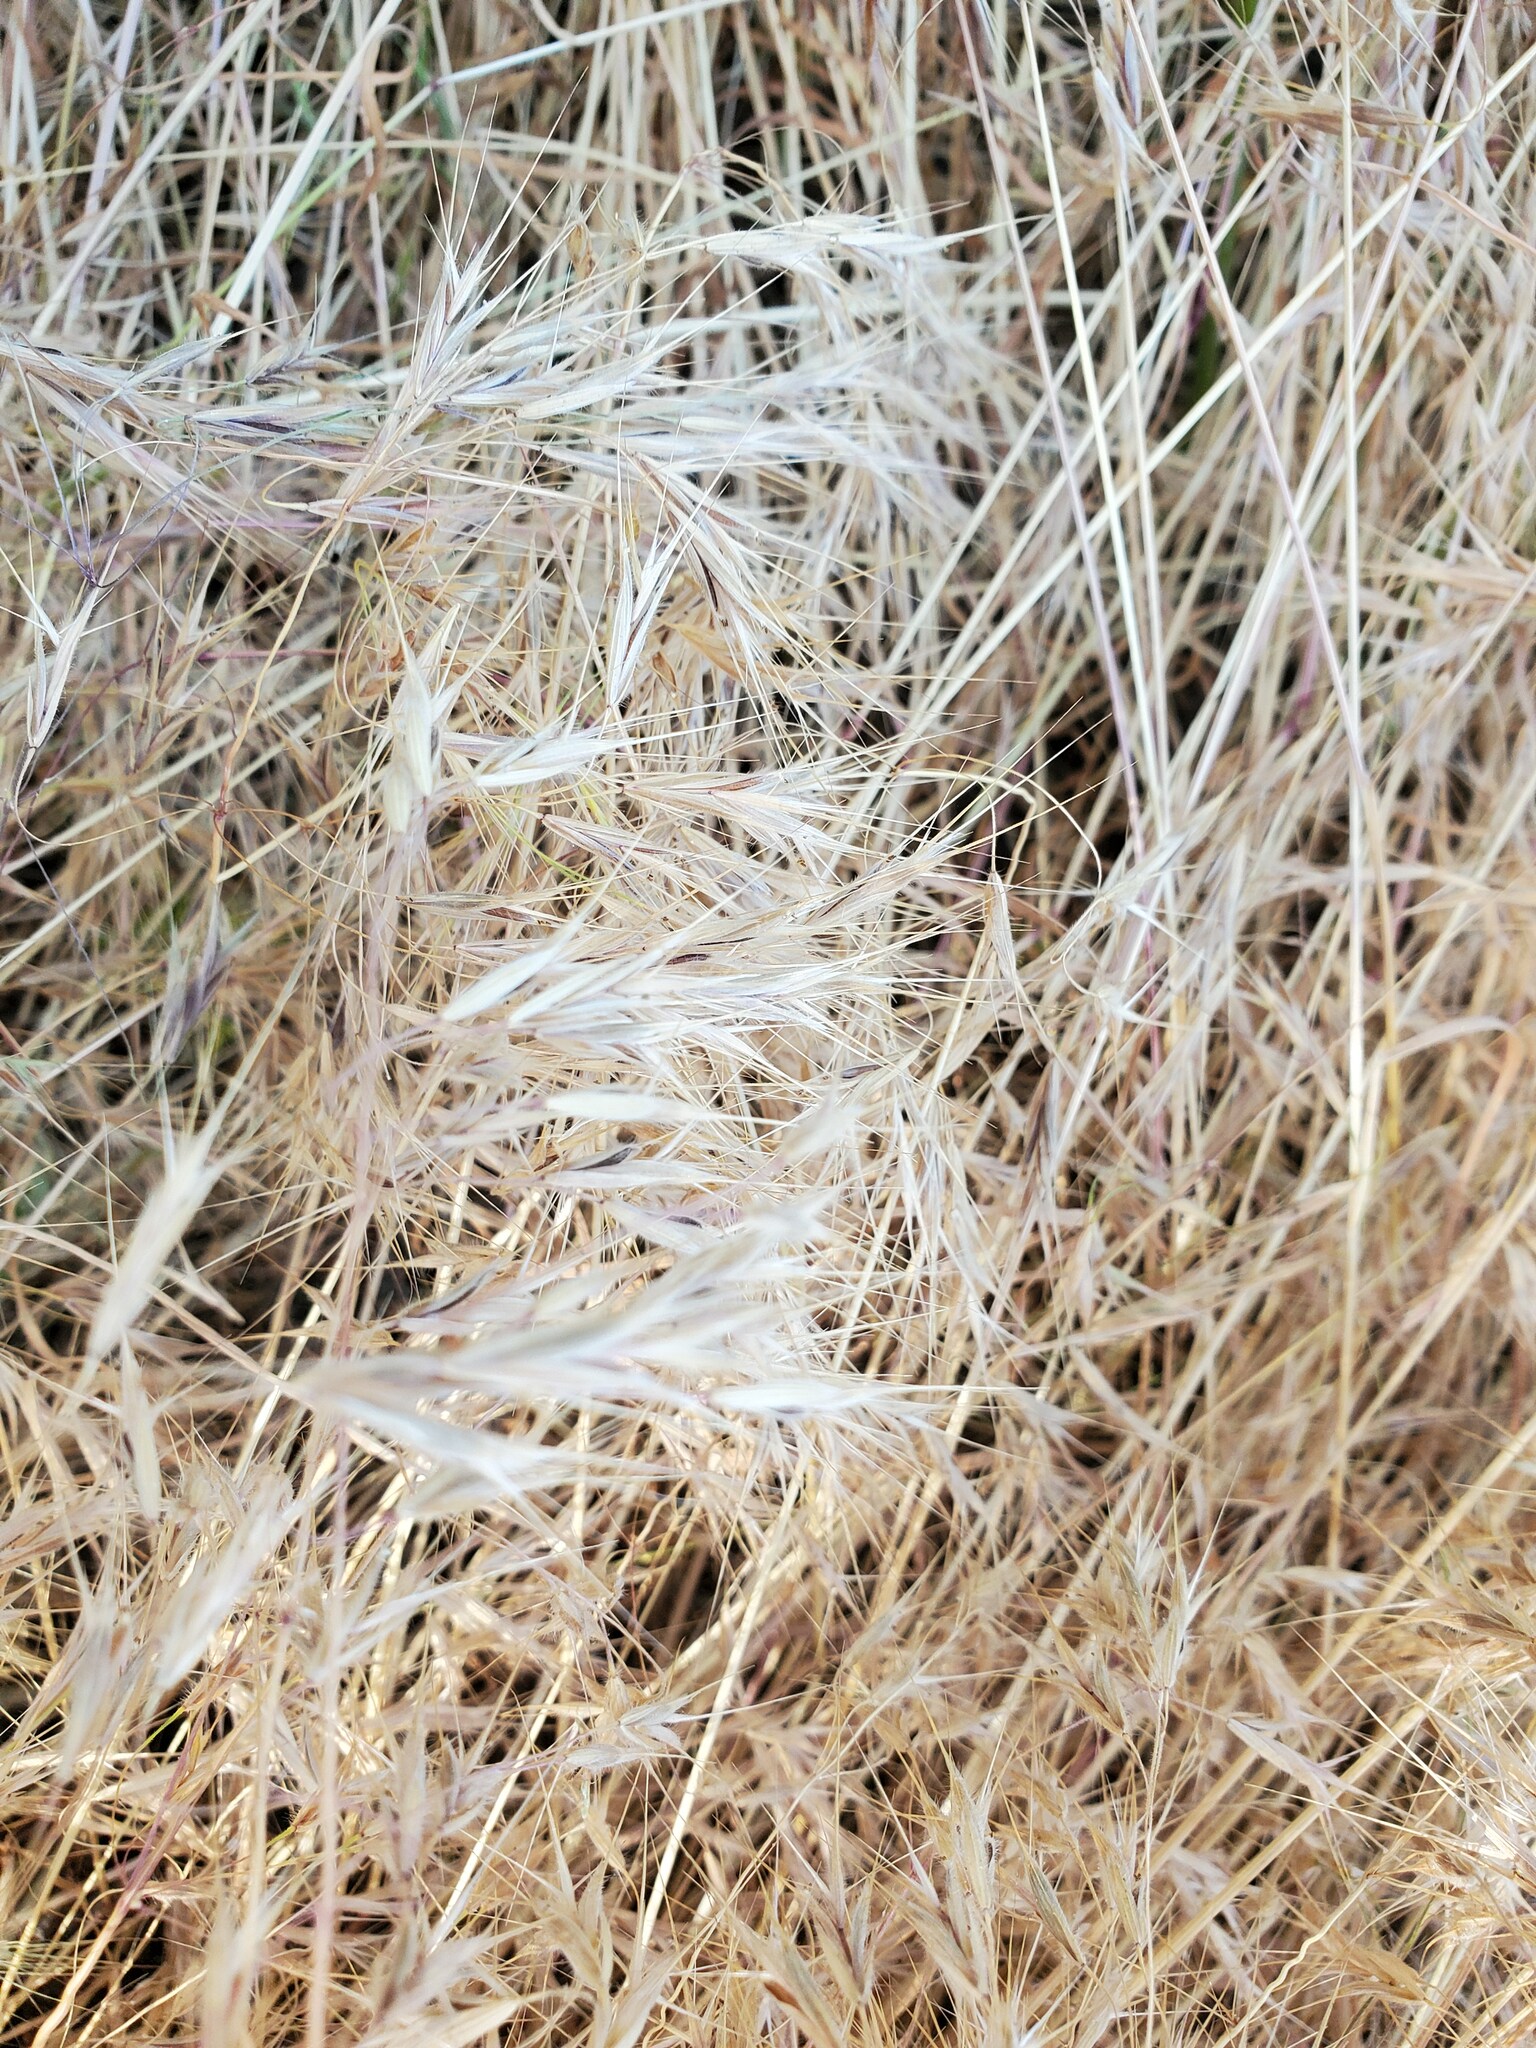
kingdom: Plantae
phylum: Tracheophyta
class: Liliopsida
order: Poales
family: Poaceae
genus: Bromus
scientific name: Bromus tectorum
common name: Cheatgrass
